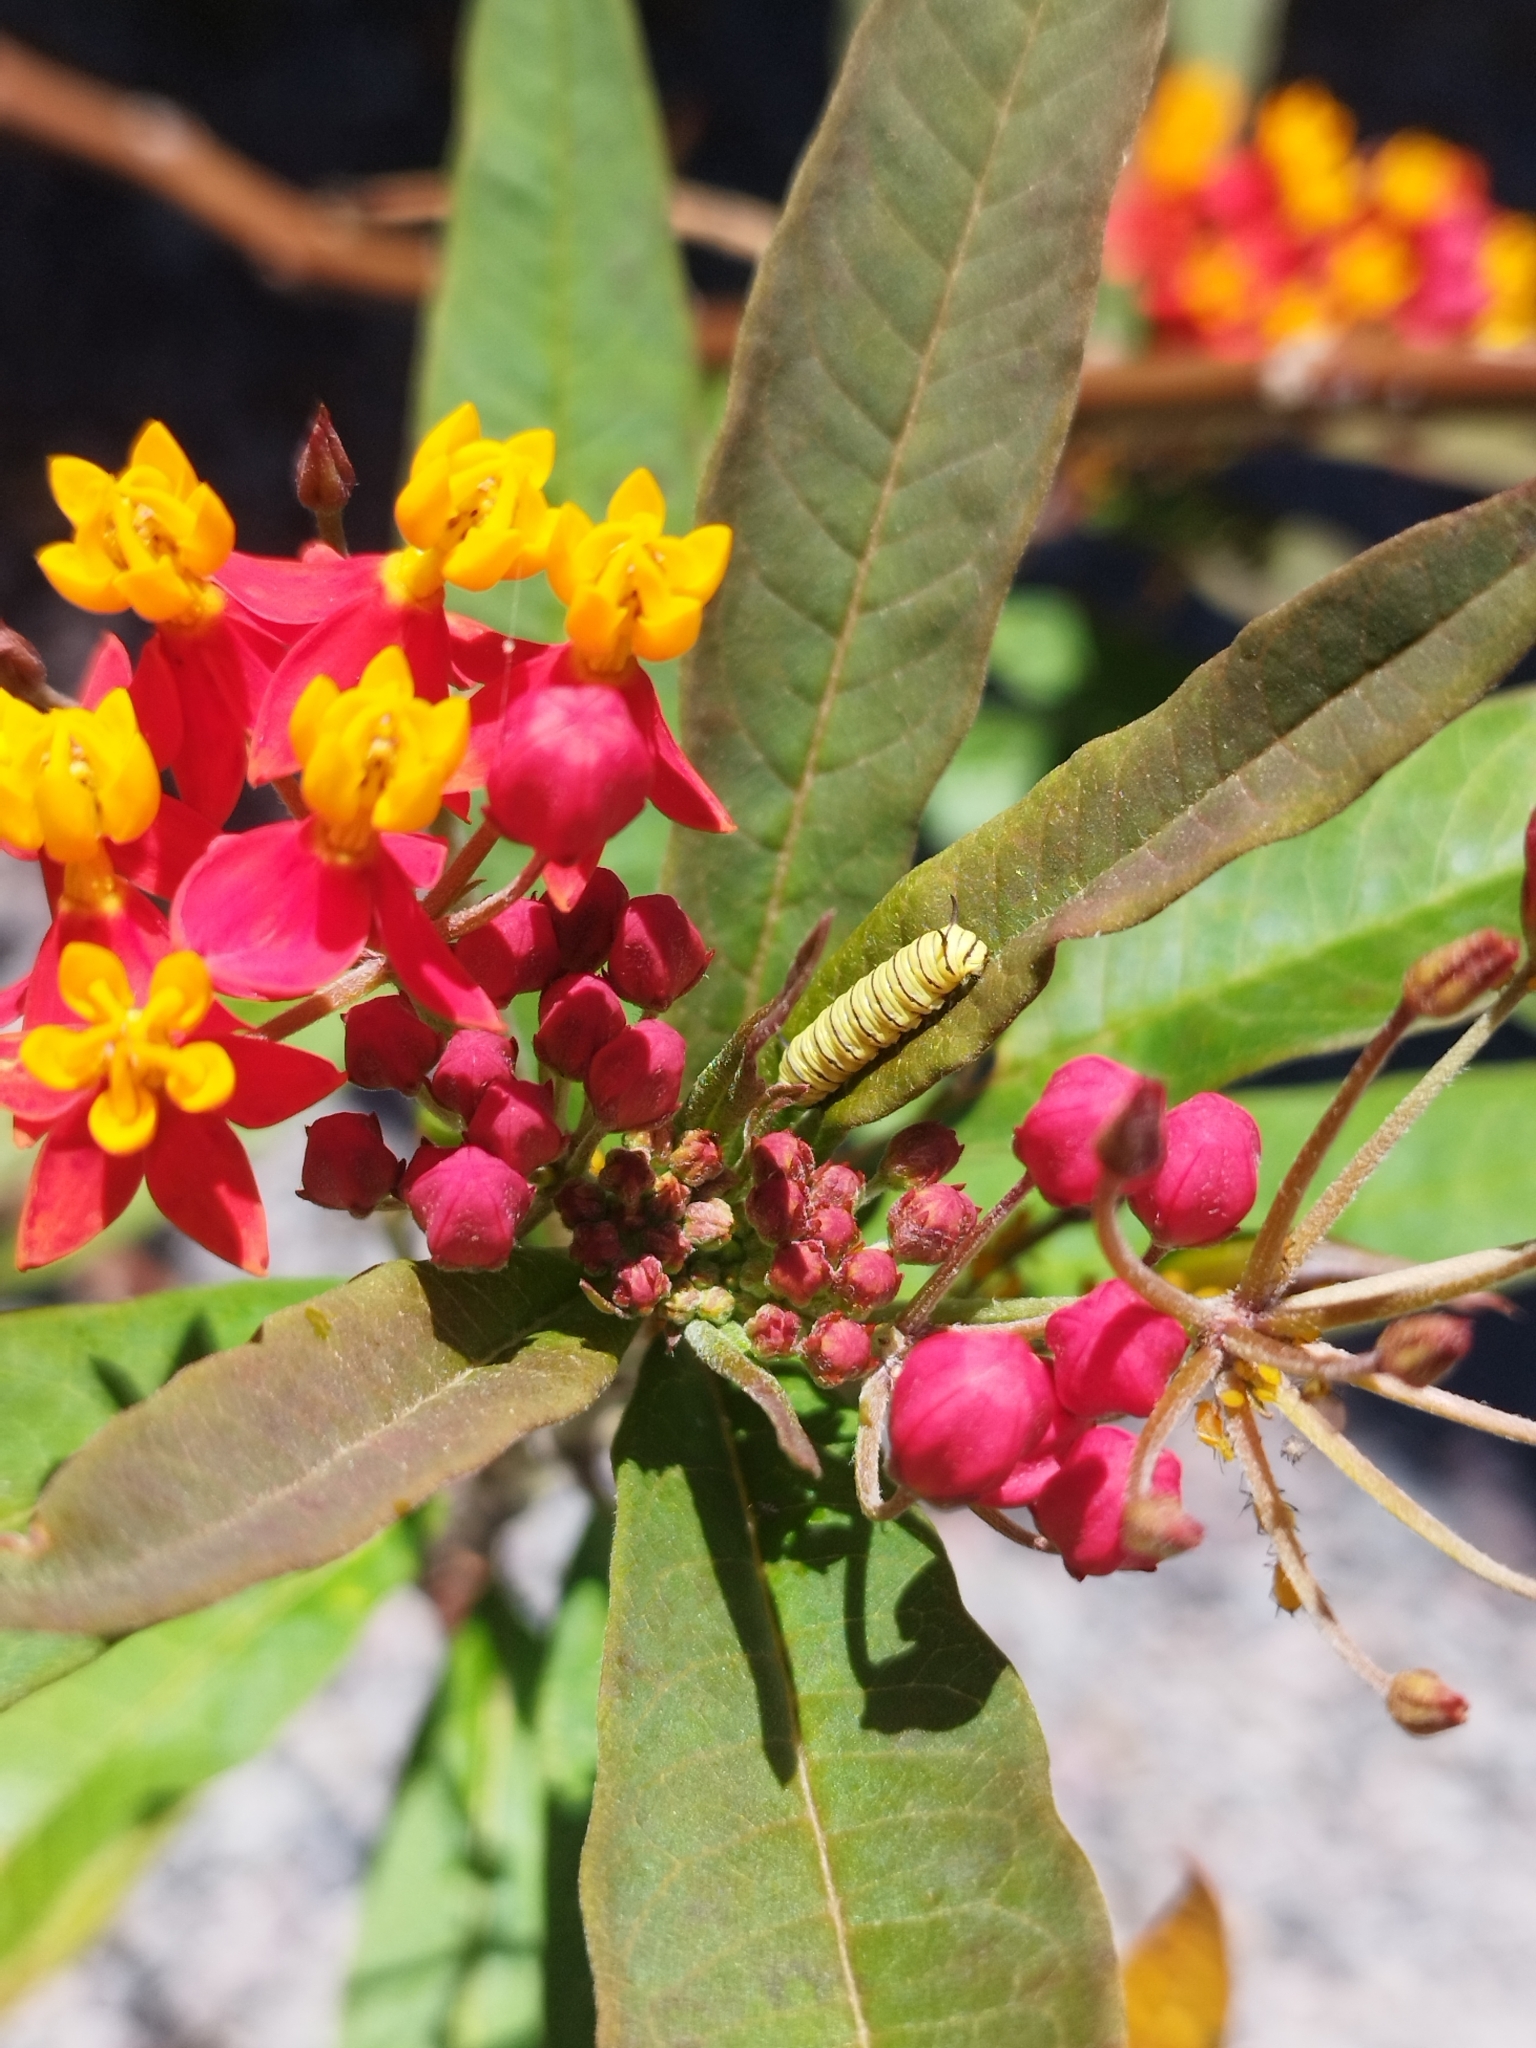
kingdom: Plantae
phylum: Tracheophyta
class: Magnoliopsida
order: Gentianales
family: Apocynaceae
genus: Asclepias
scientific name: Asclepias curassavica
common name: Bloodflower
